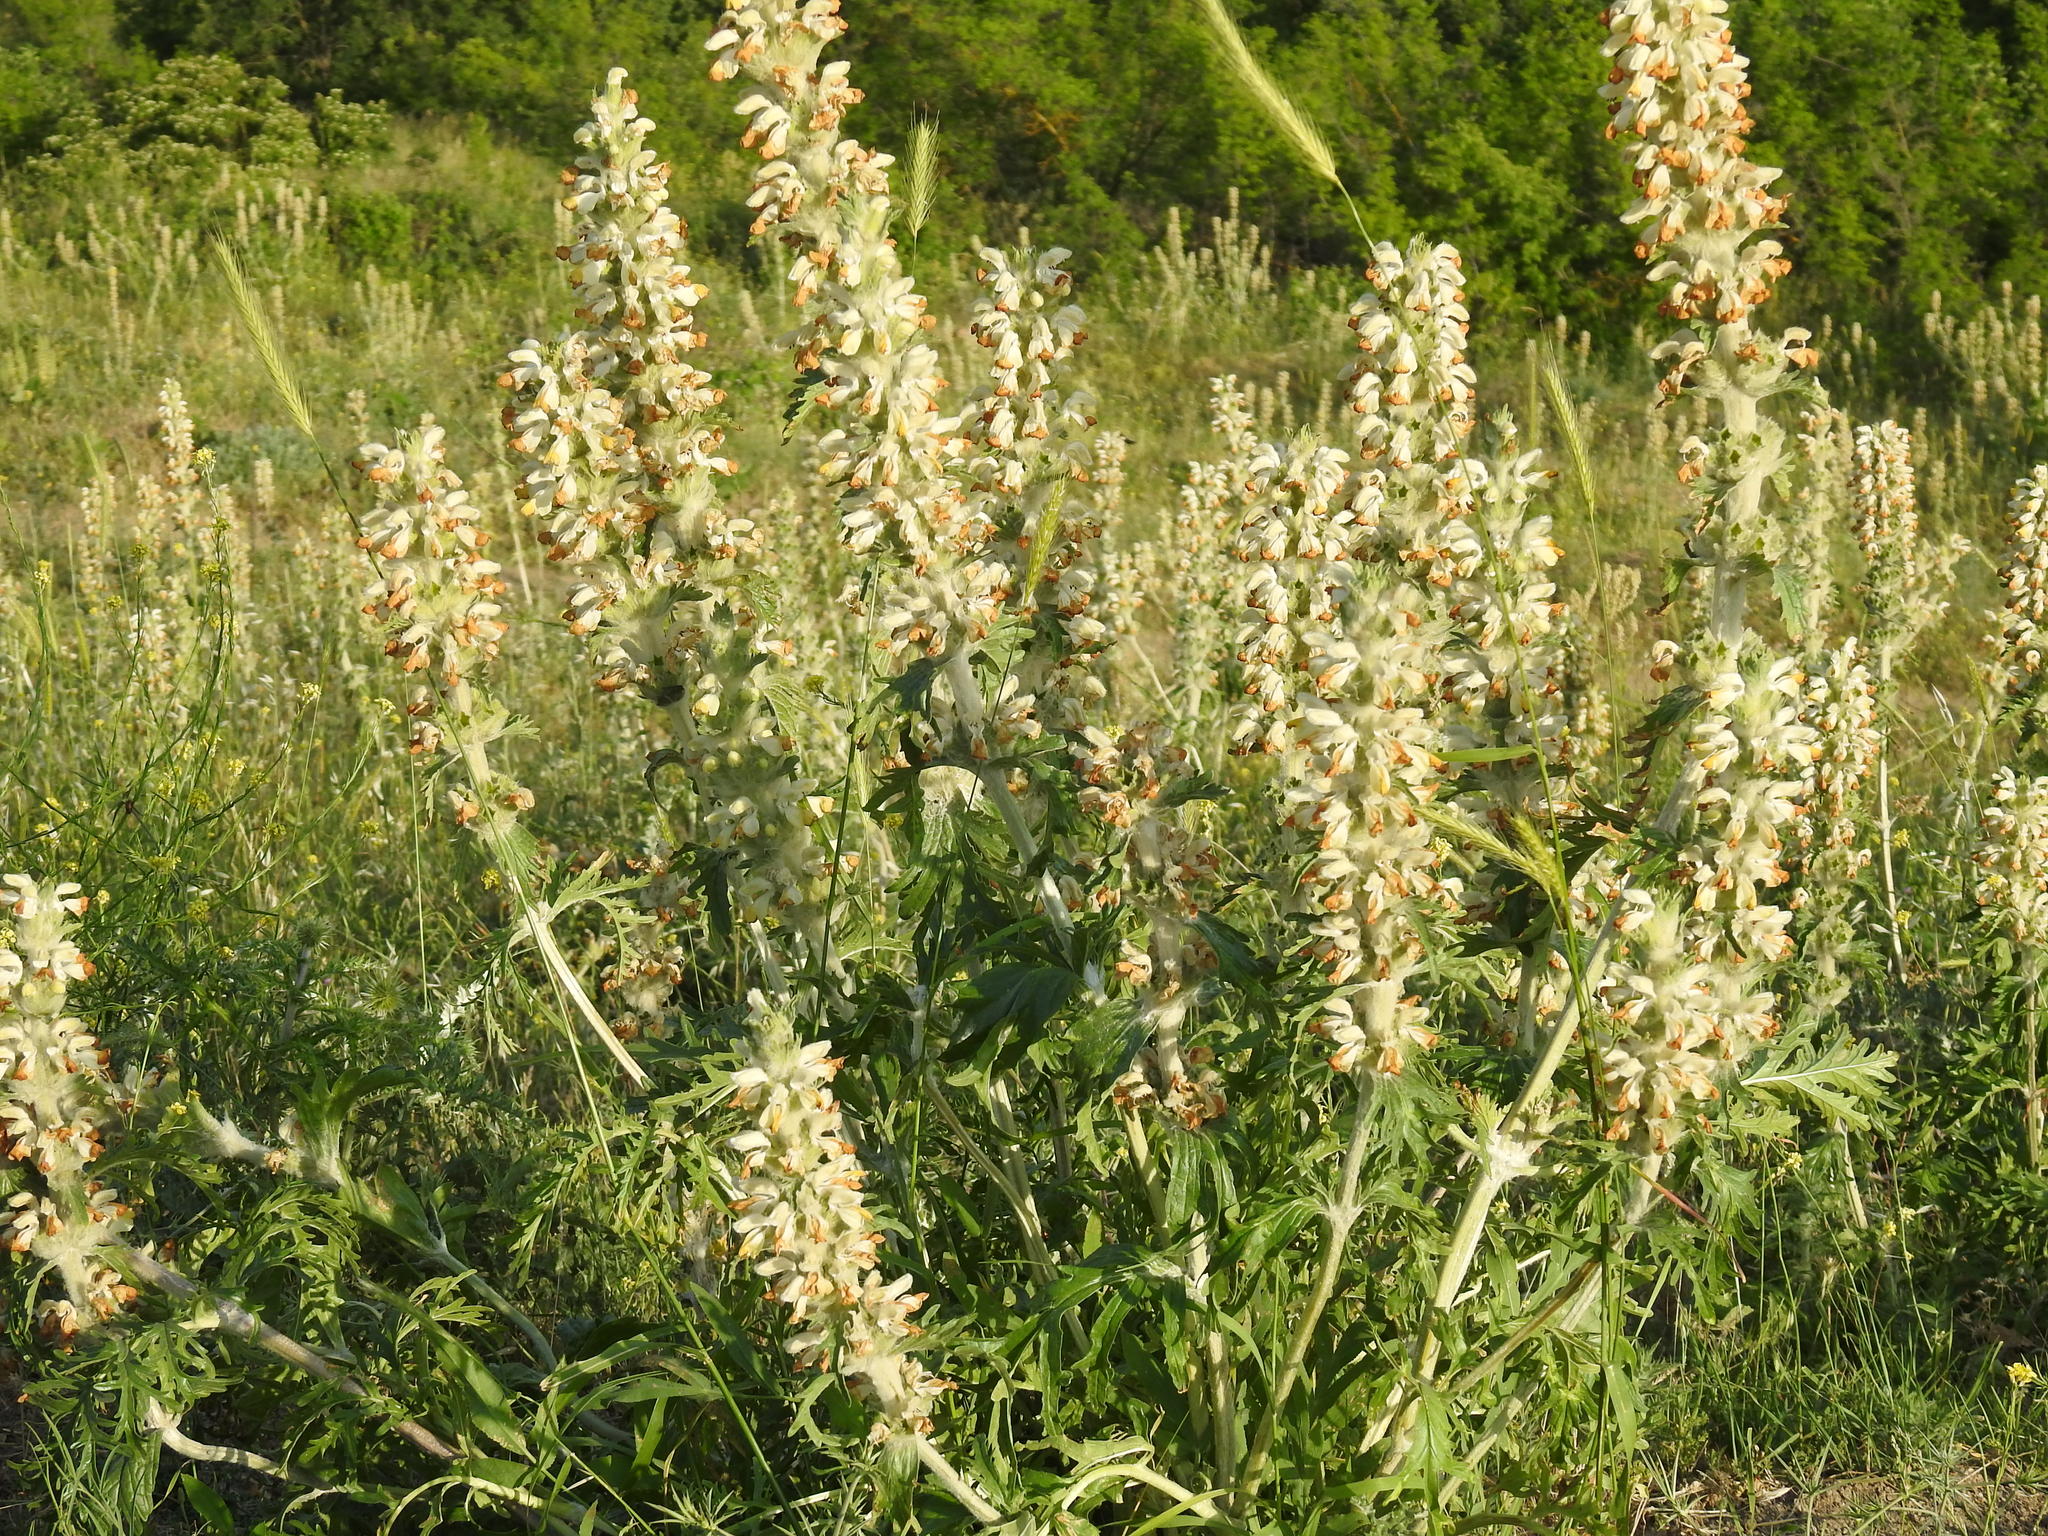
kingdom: Plantae
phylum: Tracheophyta
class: Magnoliopsida
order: Lamiales
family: Lamiaceae
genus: Phlomoides
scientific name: Phlomoides laciniata
